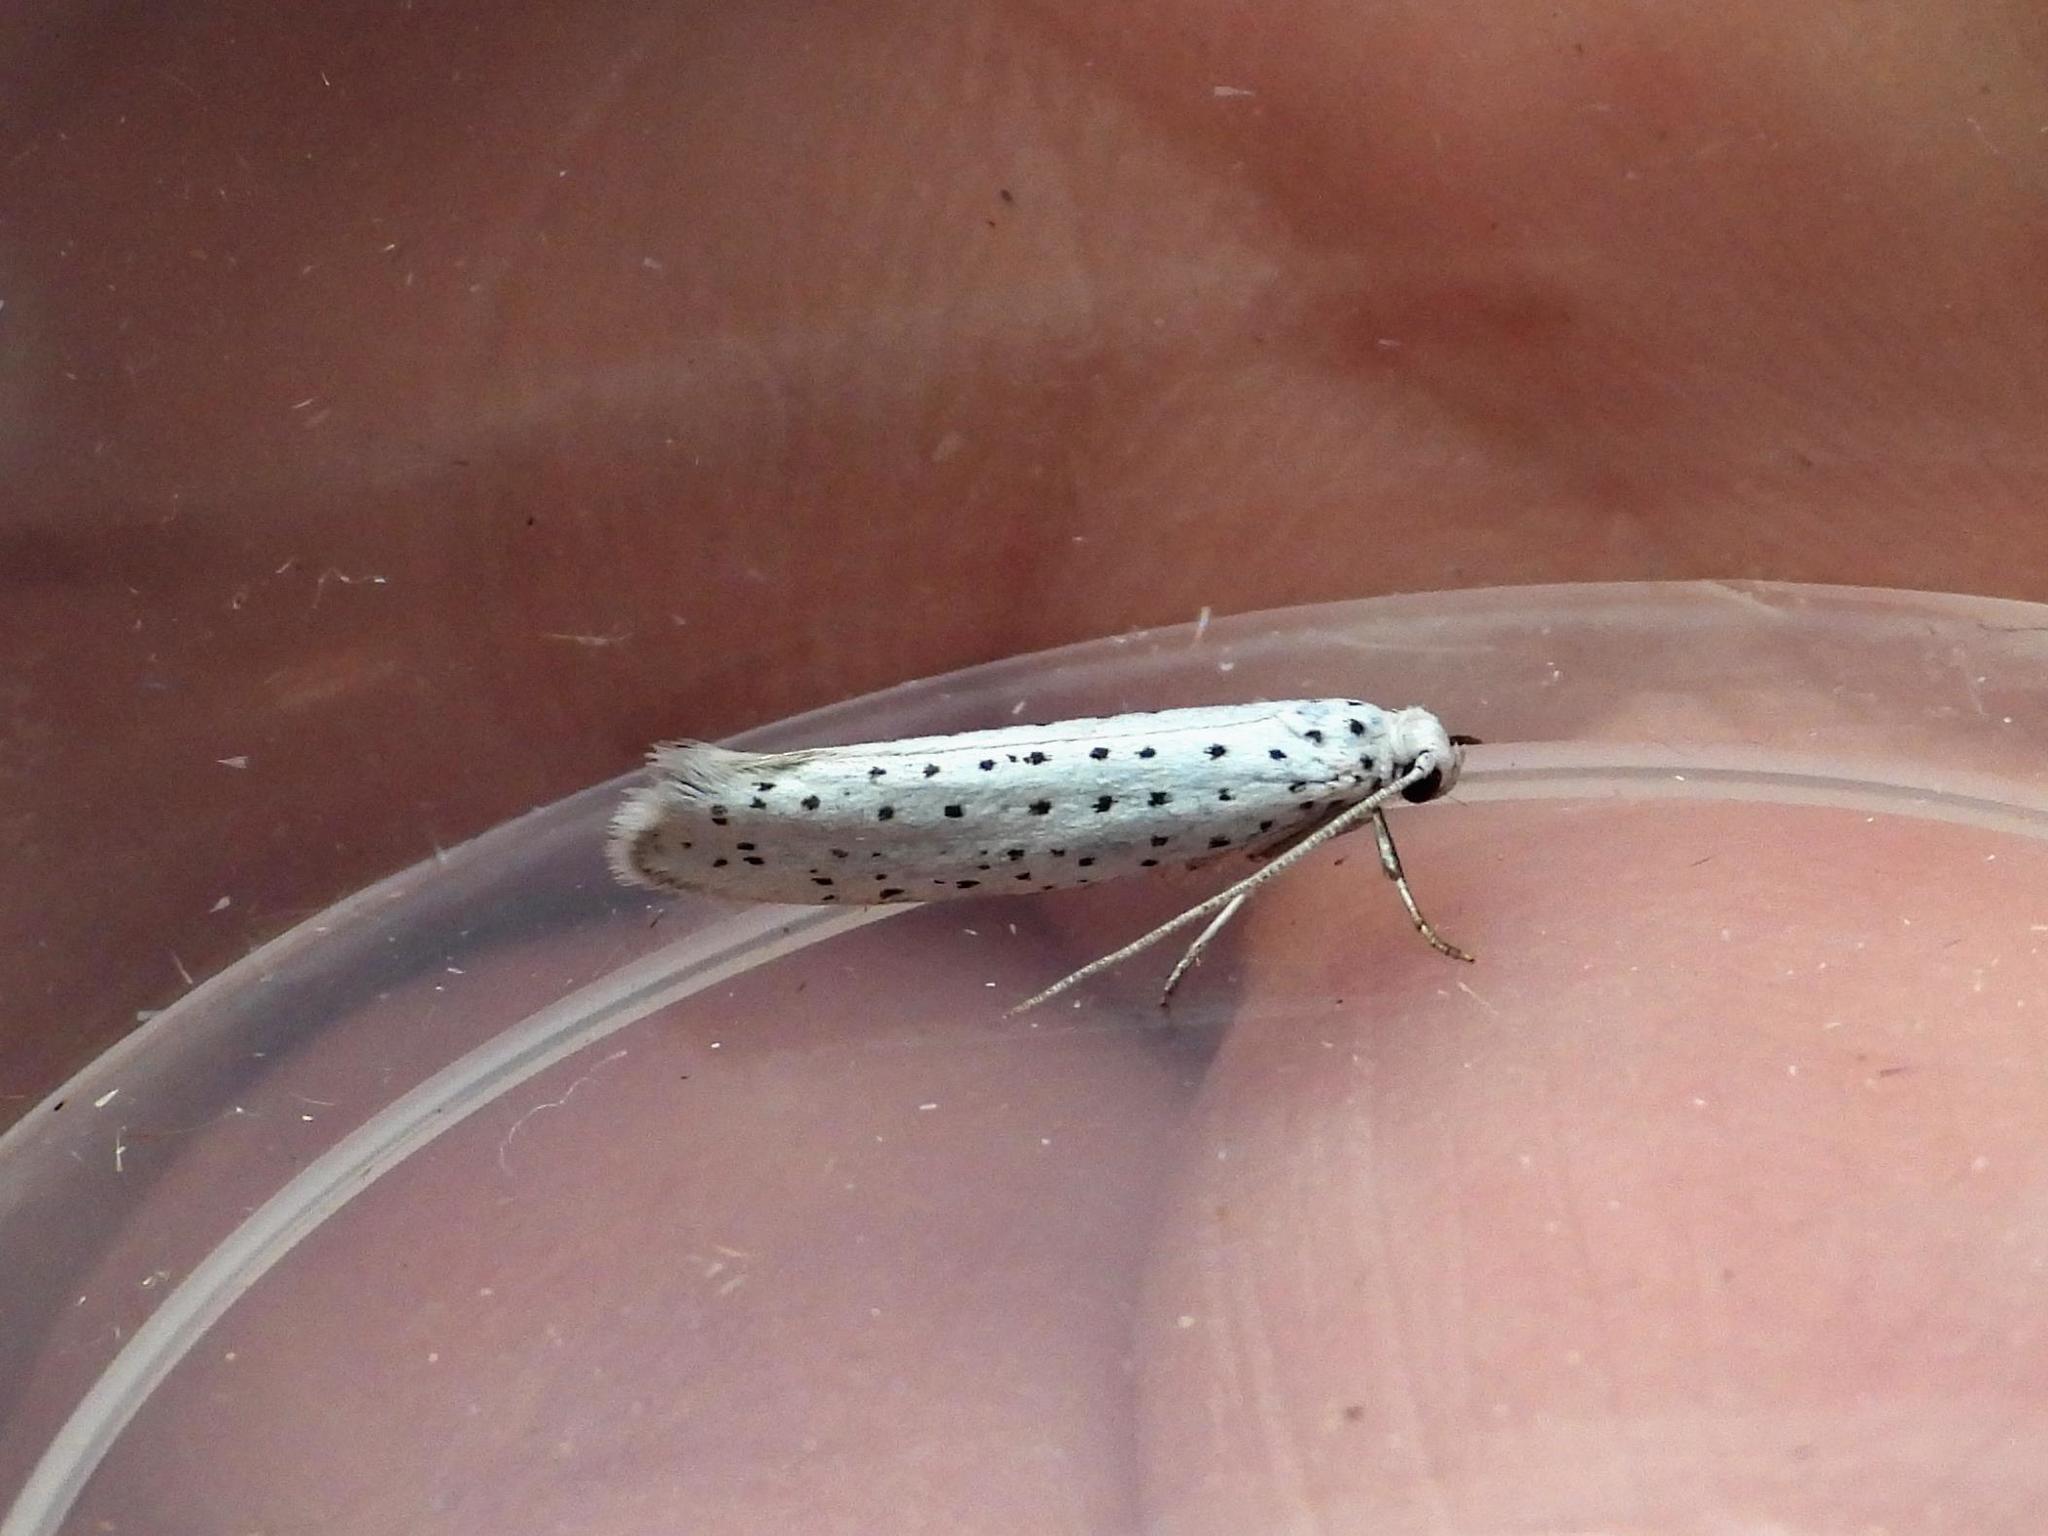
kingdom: Animalia
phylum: Arthropoda
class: Insecta
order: Lepidoptera
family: Yponomeutidae
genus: Yponomeuta
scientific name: Yponomeuta evonymella
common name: Bird-cherry ermine
